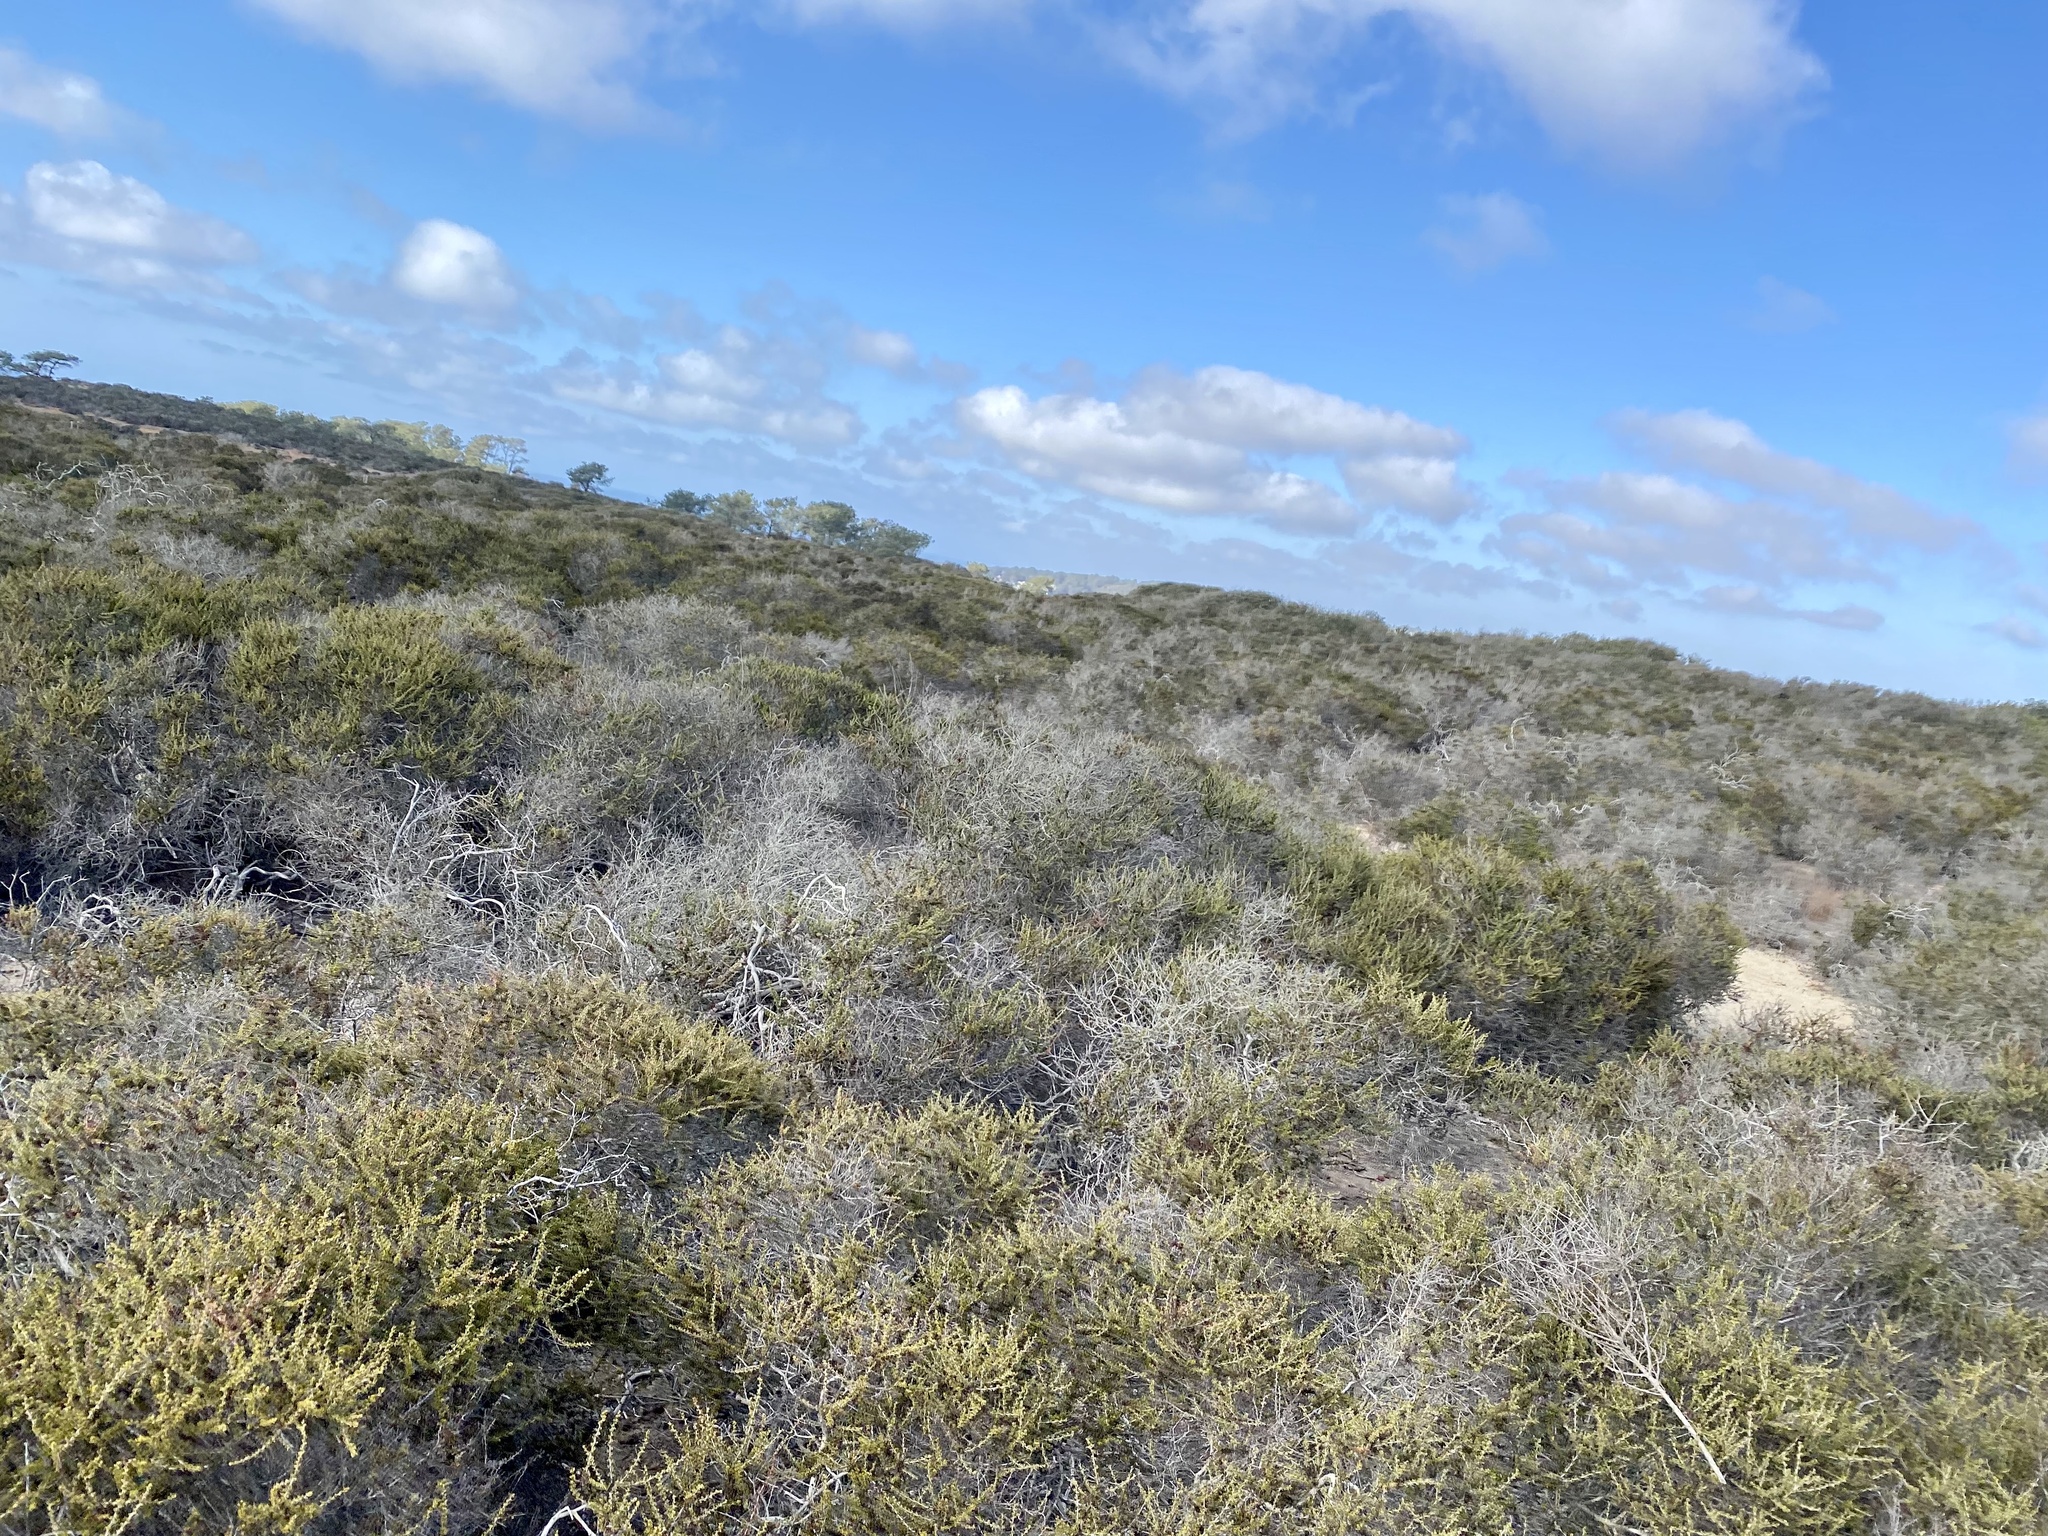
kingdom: Plantae
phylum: Tracheophyta
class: Magnoliopsida
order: Rosales
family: Rosaceae
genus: Adenostoma
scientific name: Adenostoma fasciculatum
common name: Chamise
